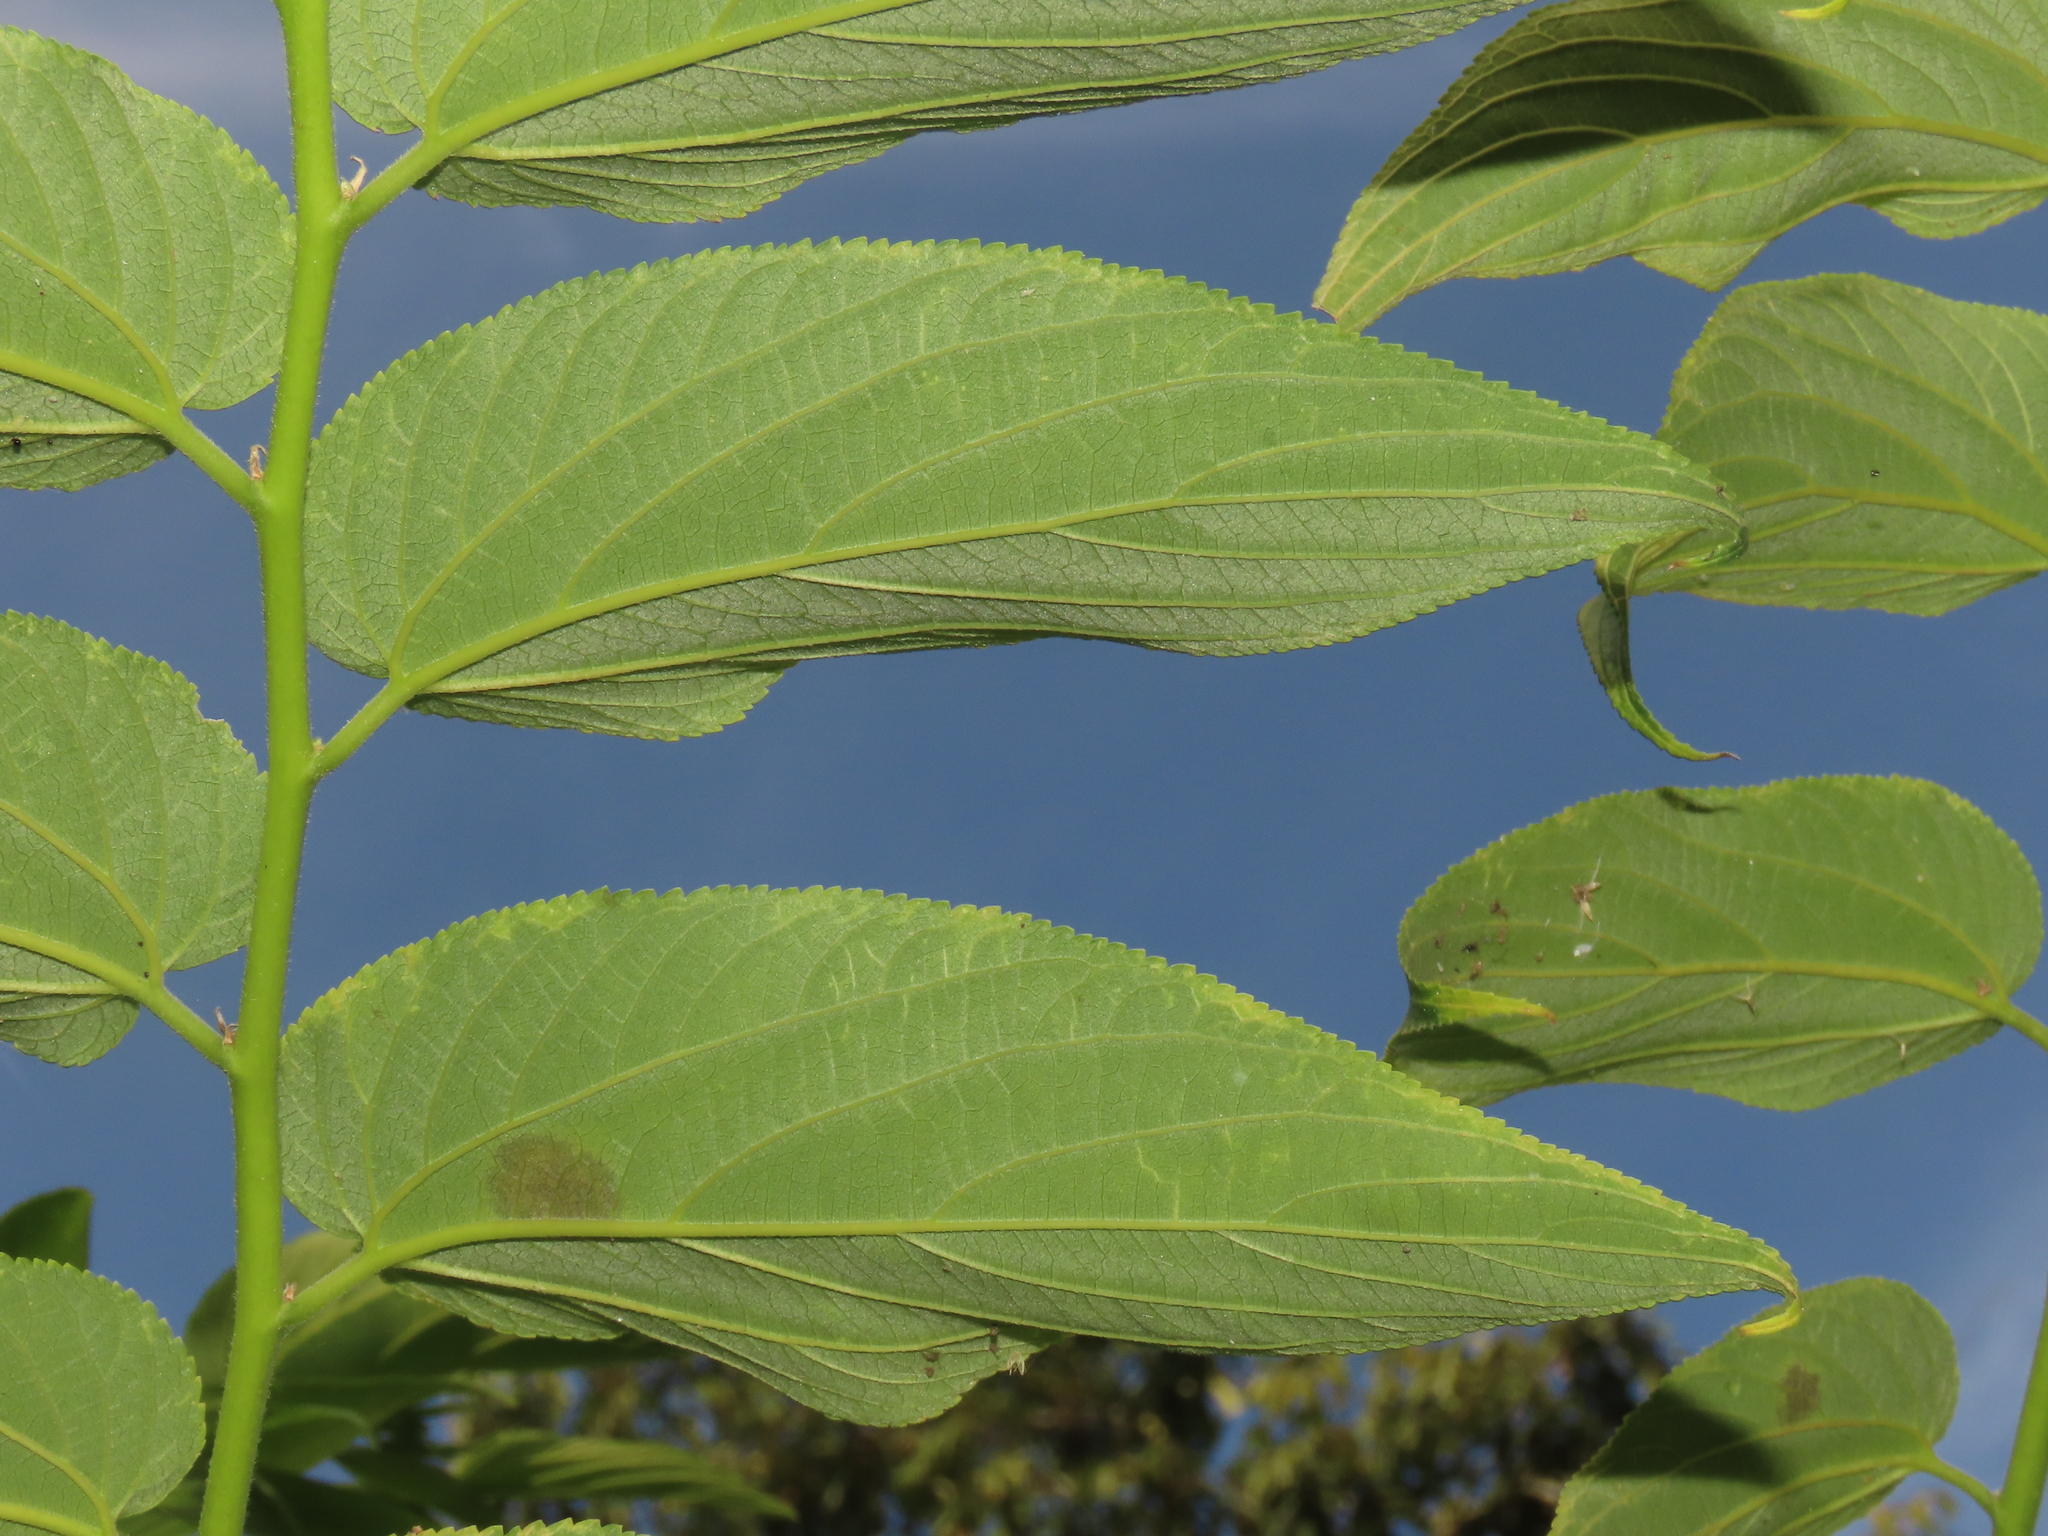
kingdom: Plantae
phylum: Tracheophyta
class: Magnoliopsida
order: Rosales
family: Cannabaceae
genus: Trema
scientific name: Trema tomentosum
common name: Peach-leaf-poisonbush
